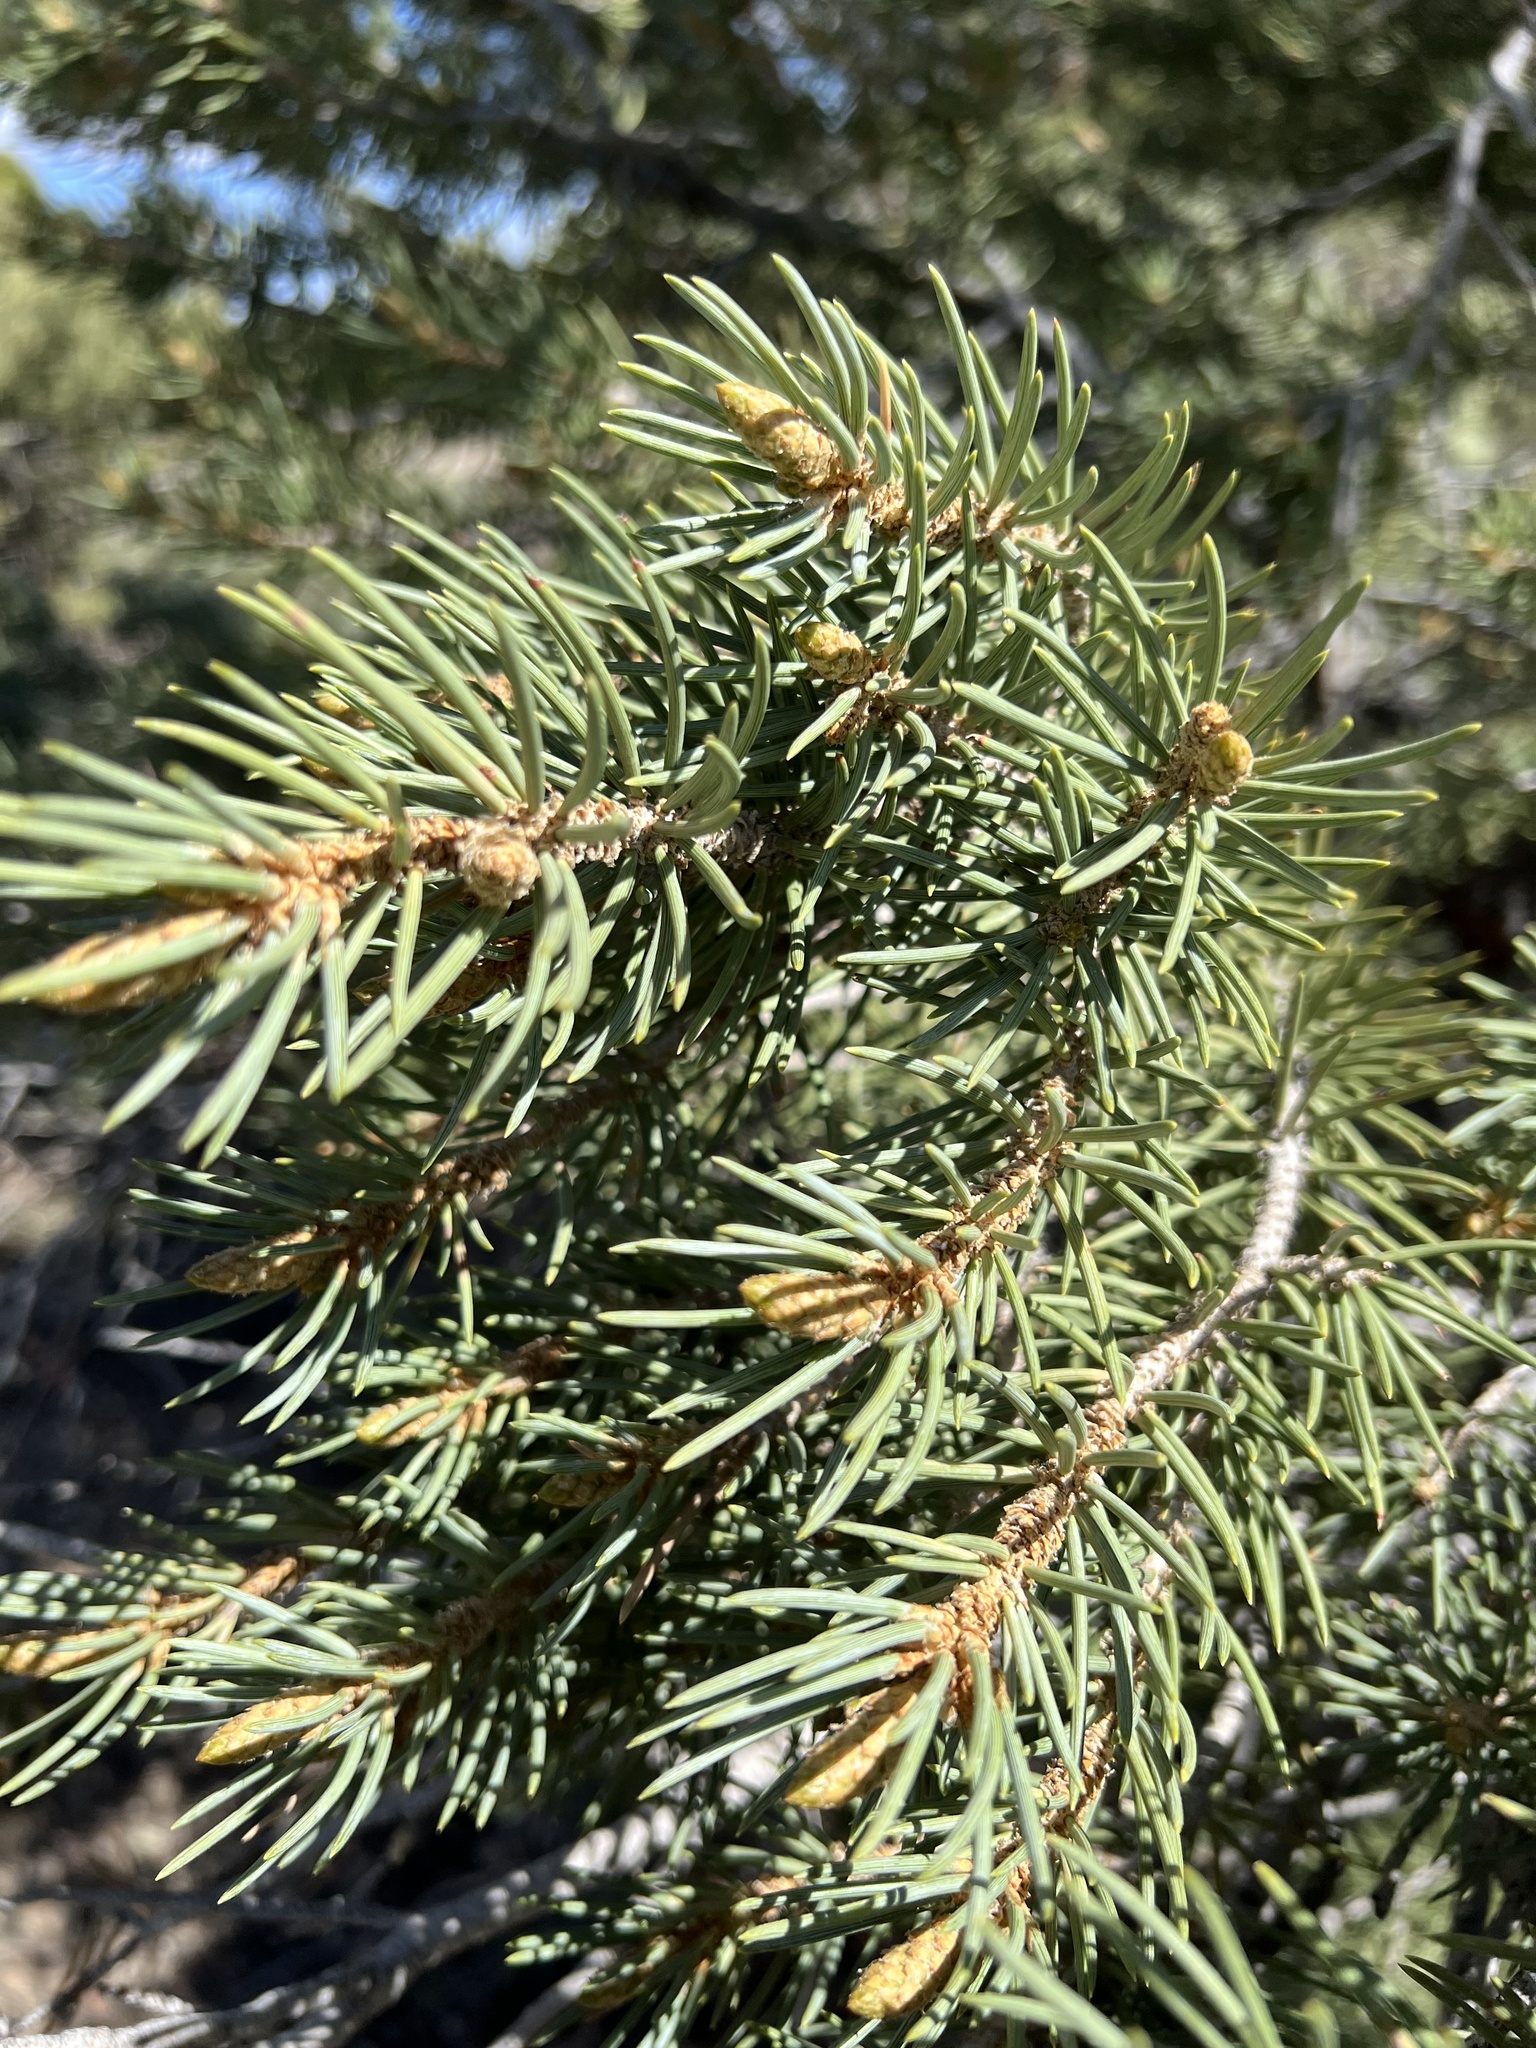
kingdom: Plantae
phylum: Tracheophyta
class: Pinopsida
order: Pinales
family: Pinaceae
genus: Pinus
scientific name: Pinus monophylla
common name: One-leaved nut pine
